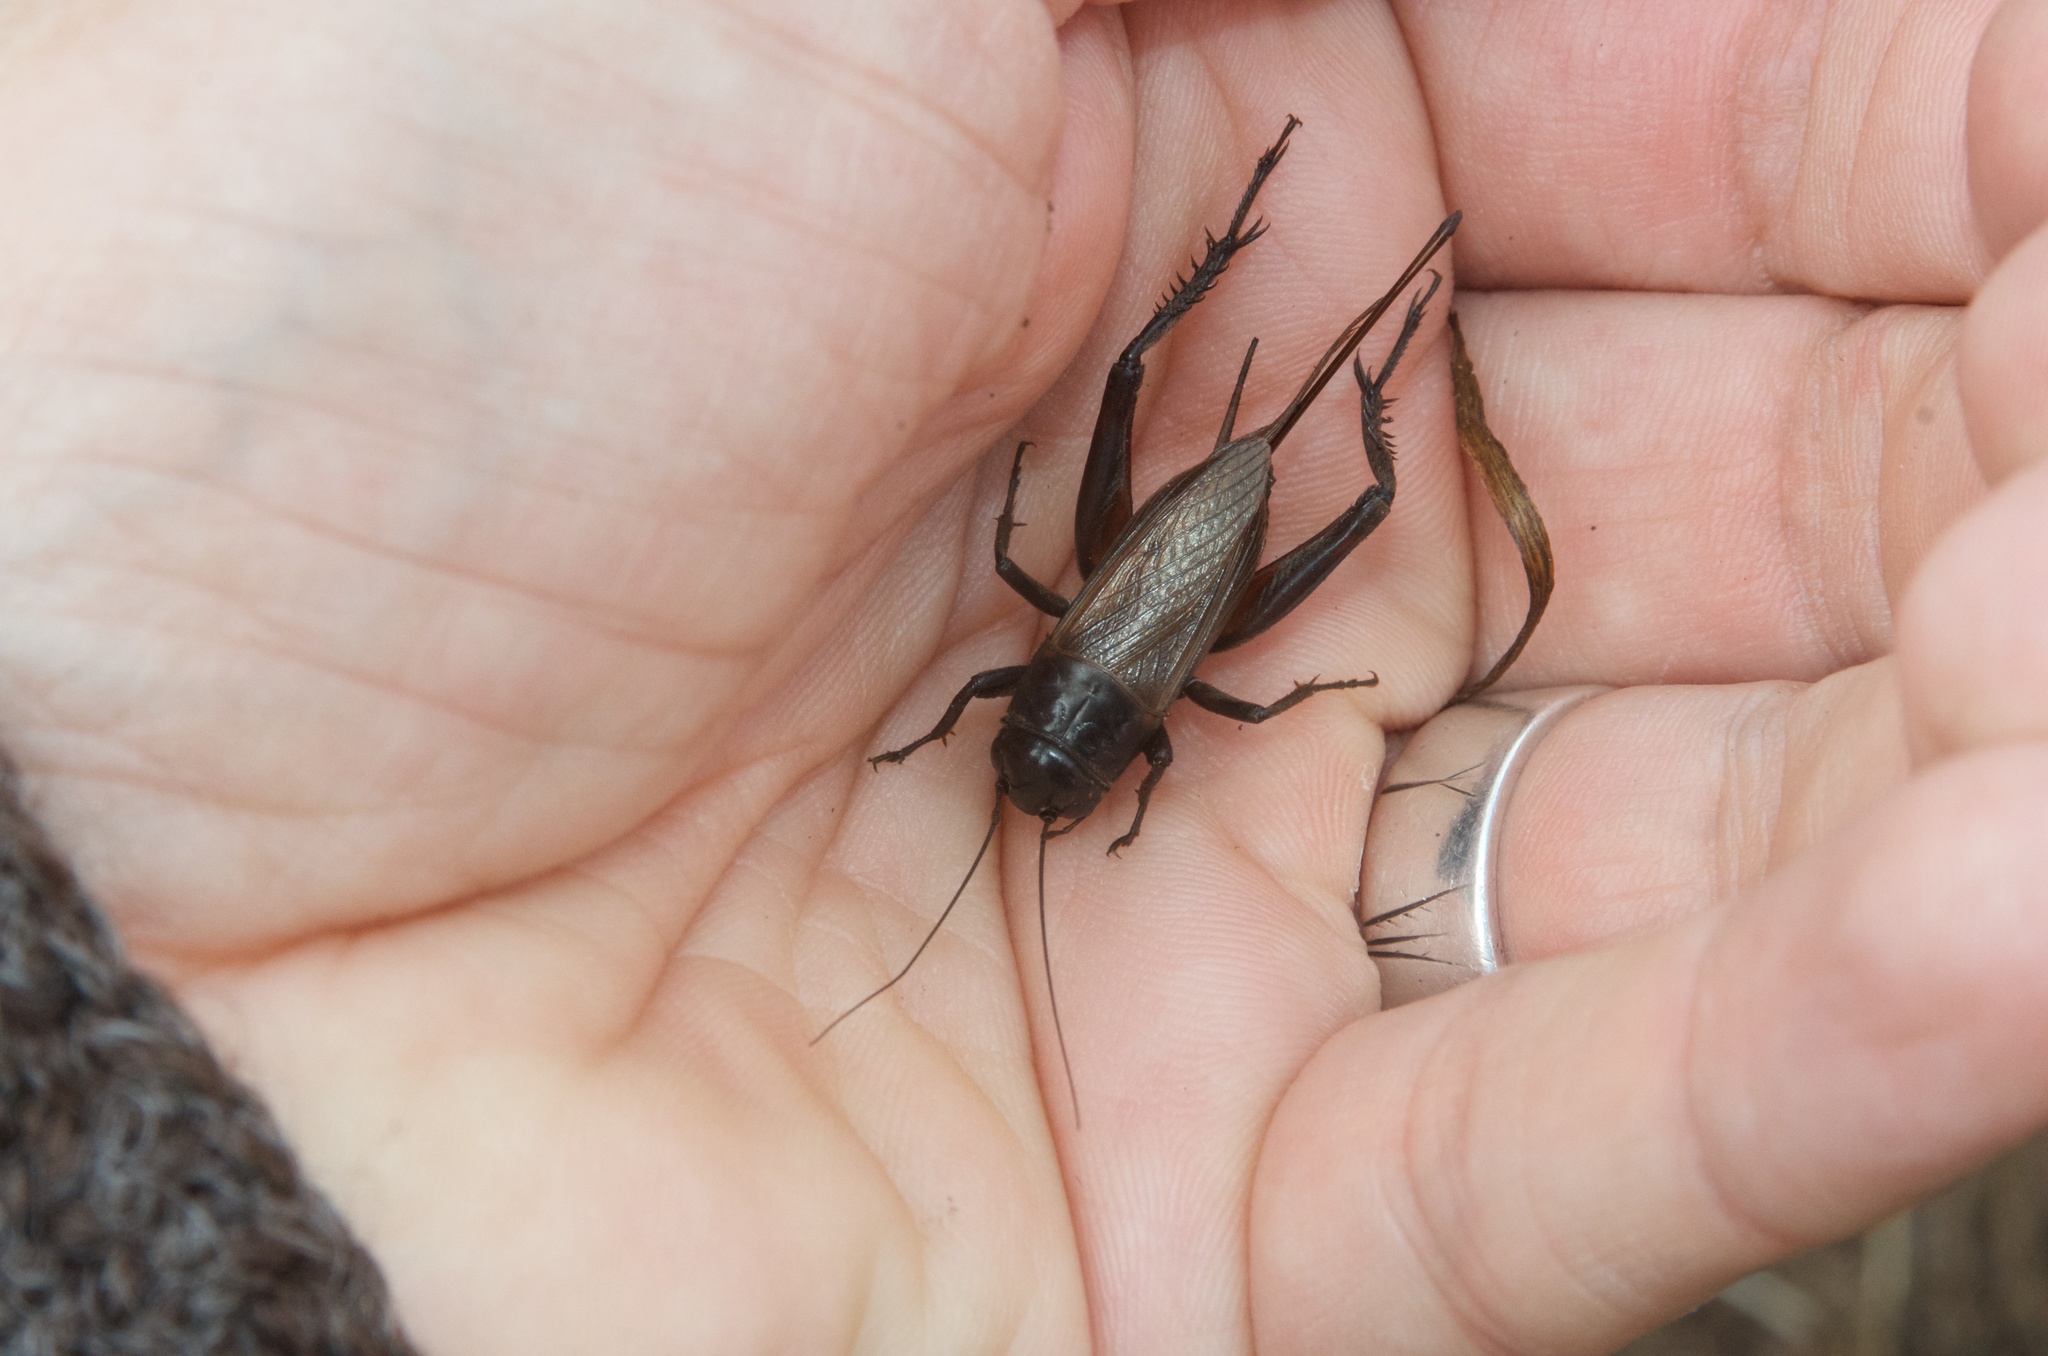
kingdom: Animalia
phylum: Arthropoda
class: Insecta
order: Orthoptera
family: Gryllidae
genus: Teleogryllus
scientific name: Teleogryllus commodus
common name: Black field cricket
